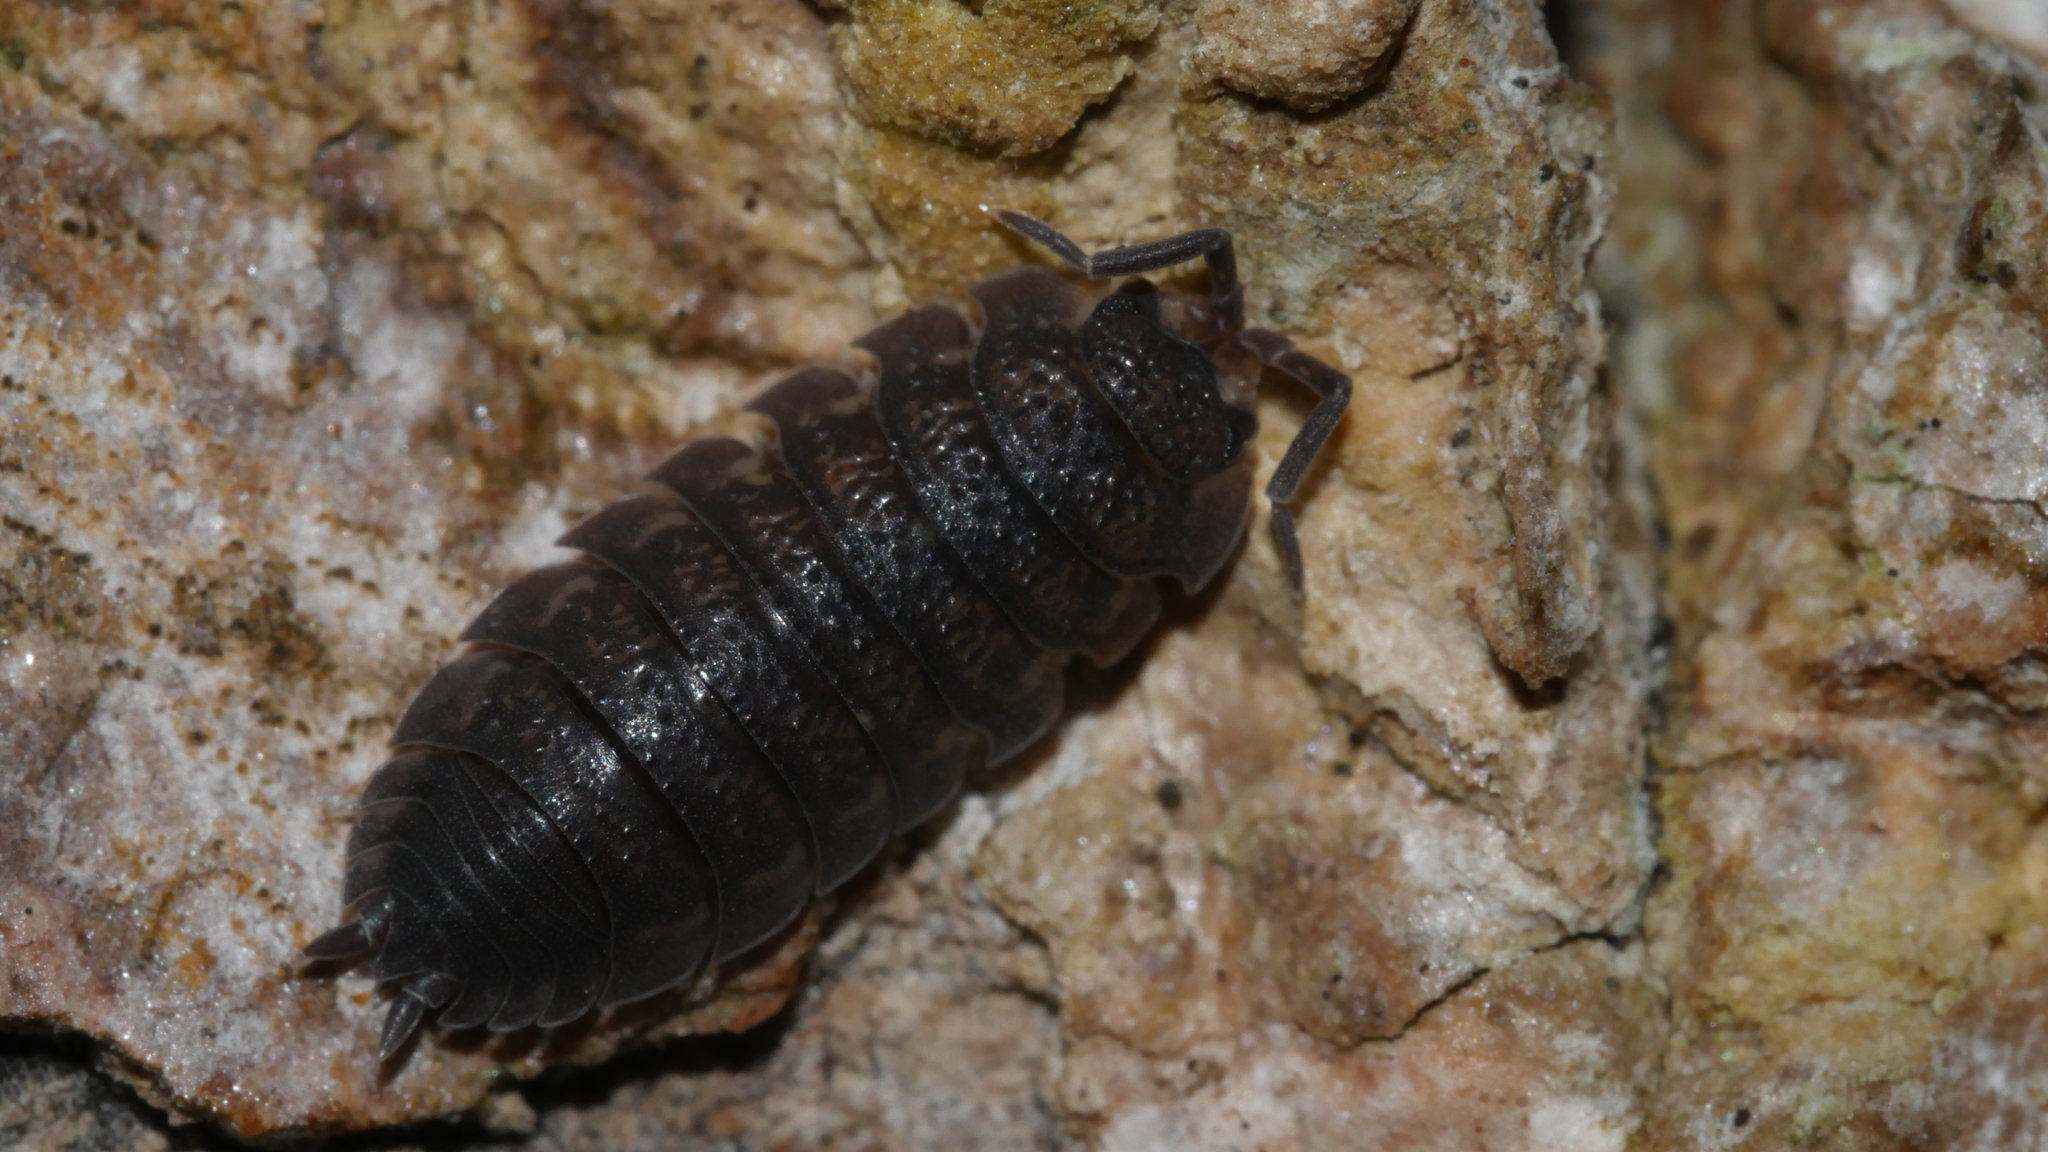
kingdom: Animalia
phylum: Arthropoda
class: Malacostraca
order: Isopoda
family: Porcellionidae
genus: Porcellio
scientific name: Porcellio scaber
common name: Common rough woodlouse
